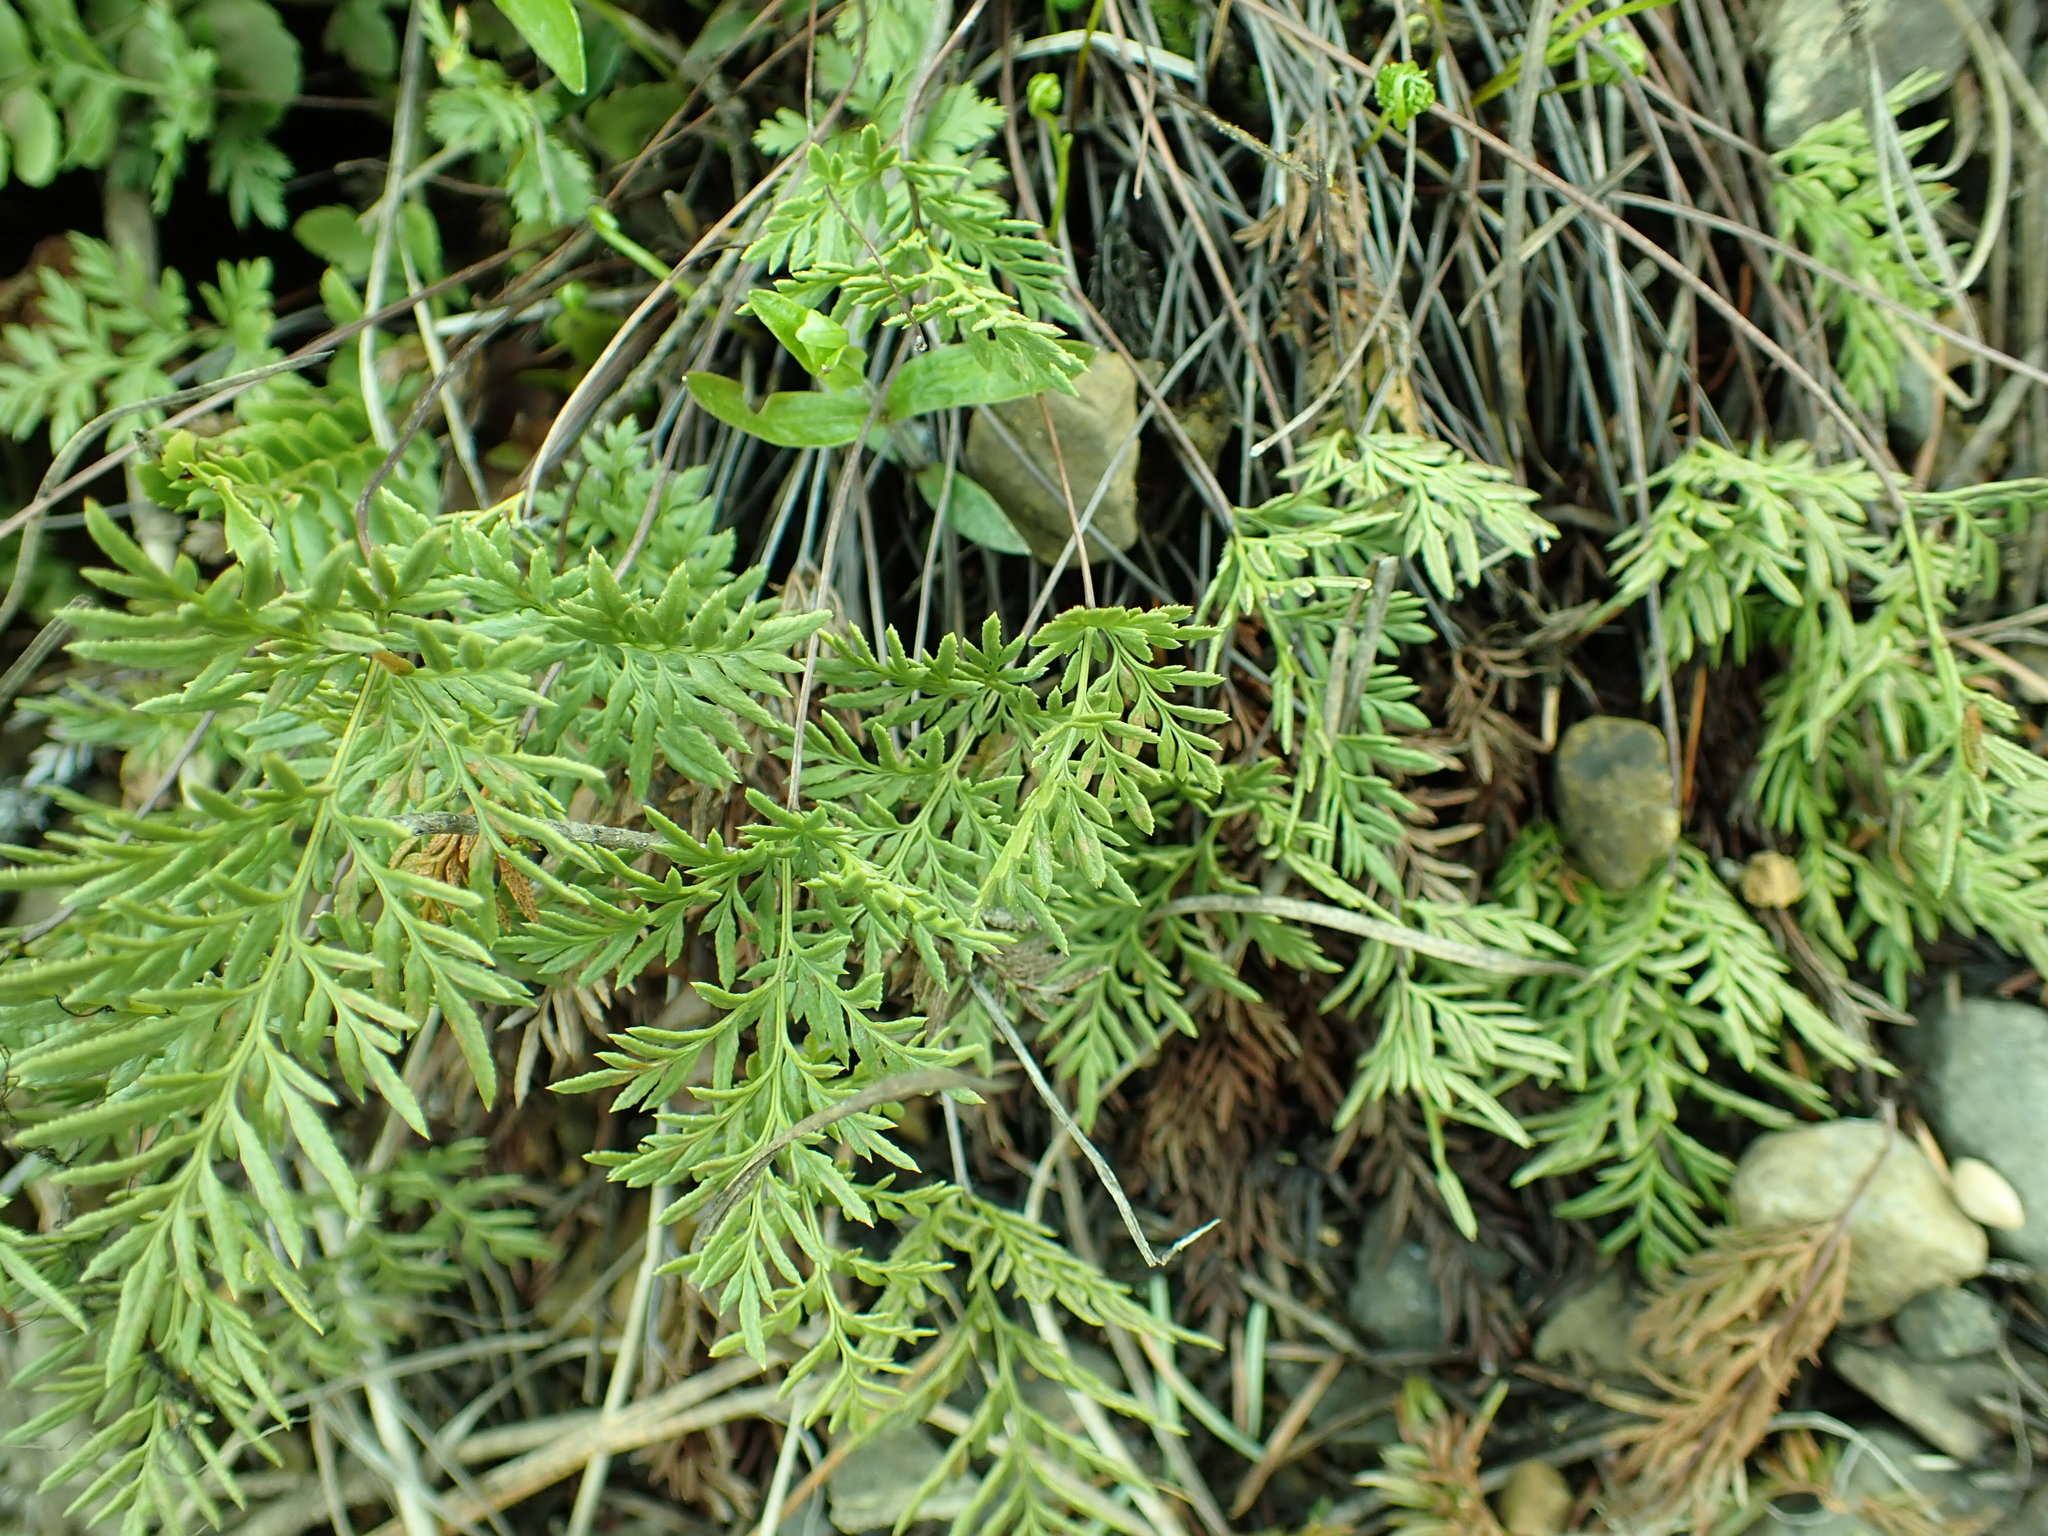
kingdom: Plantae
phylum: Tracheophyta
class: Polypodiopsida
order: Polypodiales
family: Pteridaceae
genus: Aspidotis
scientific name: Aspidotis densa
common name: Indian's dream
